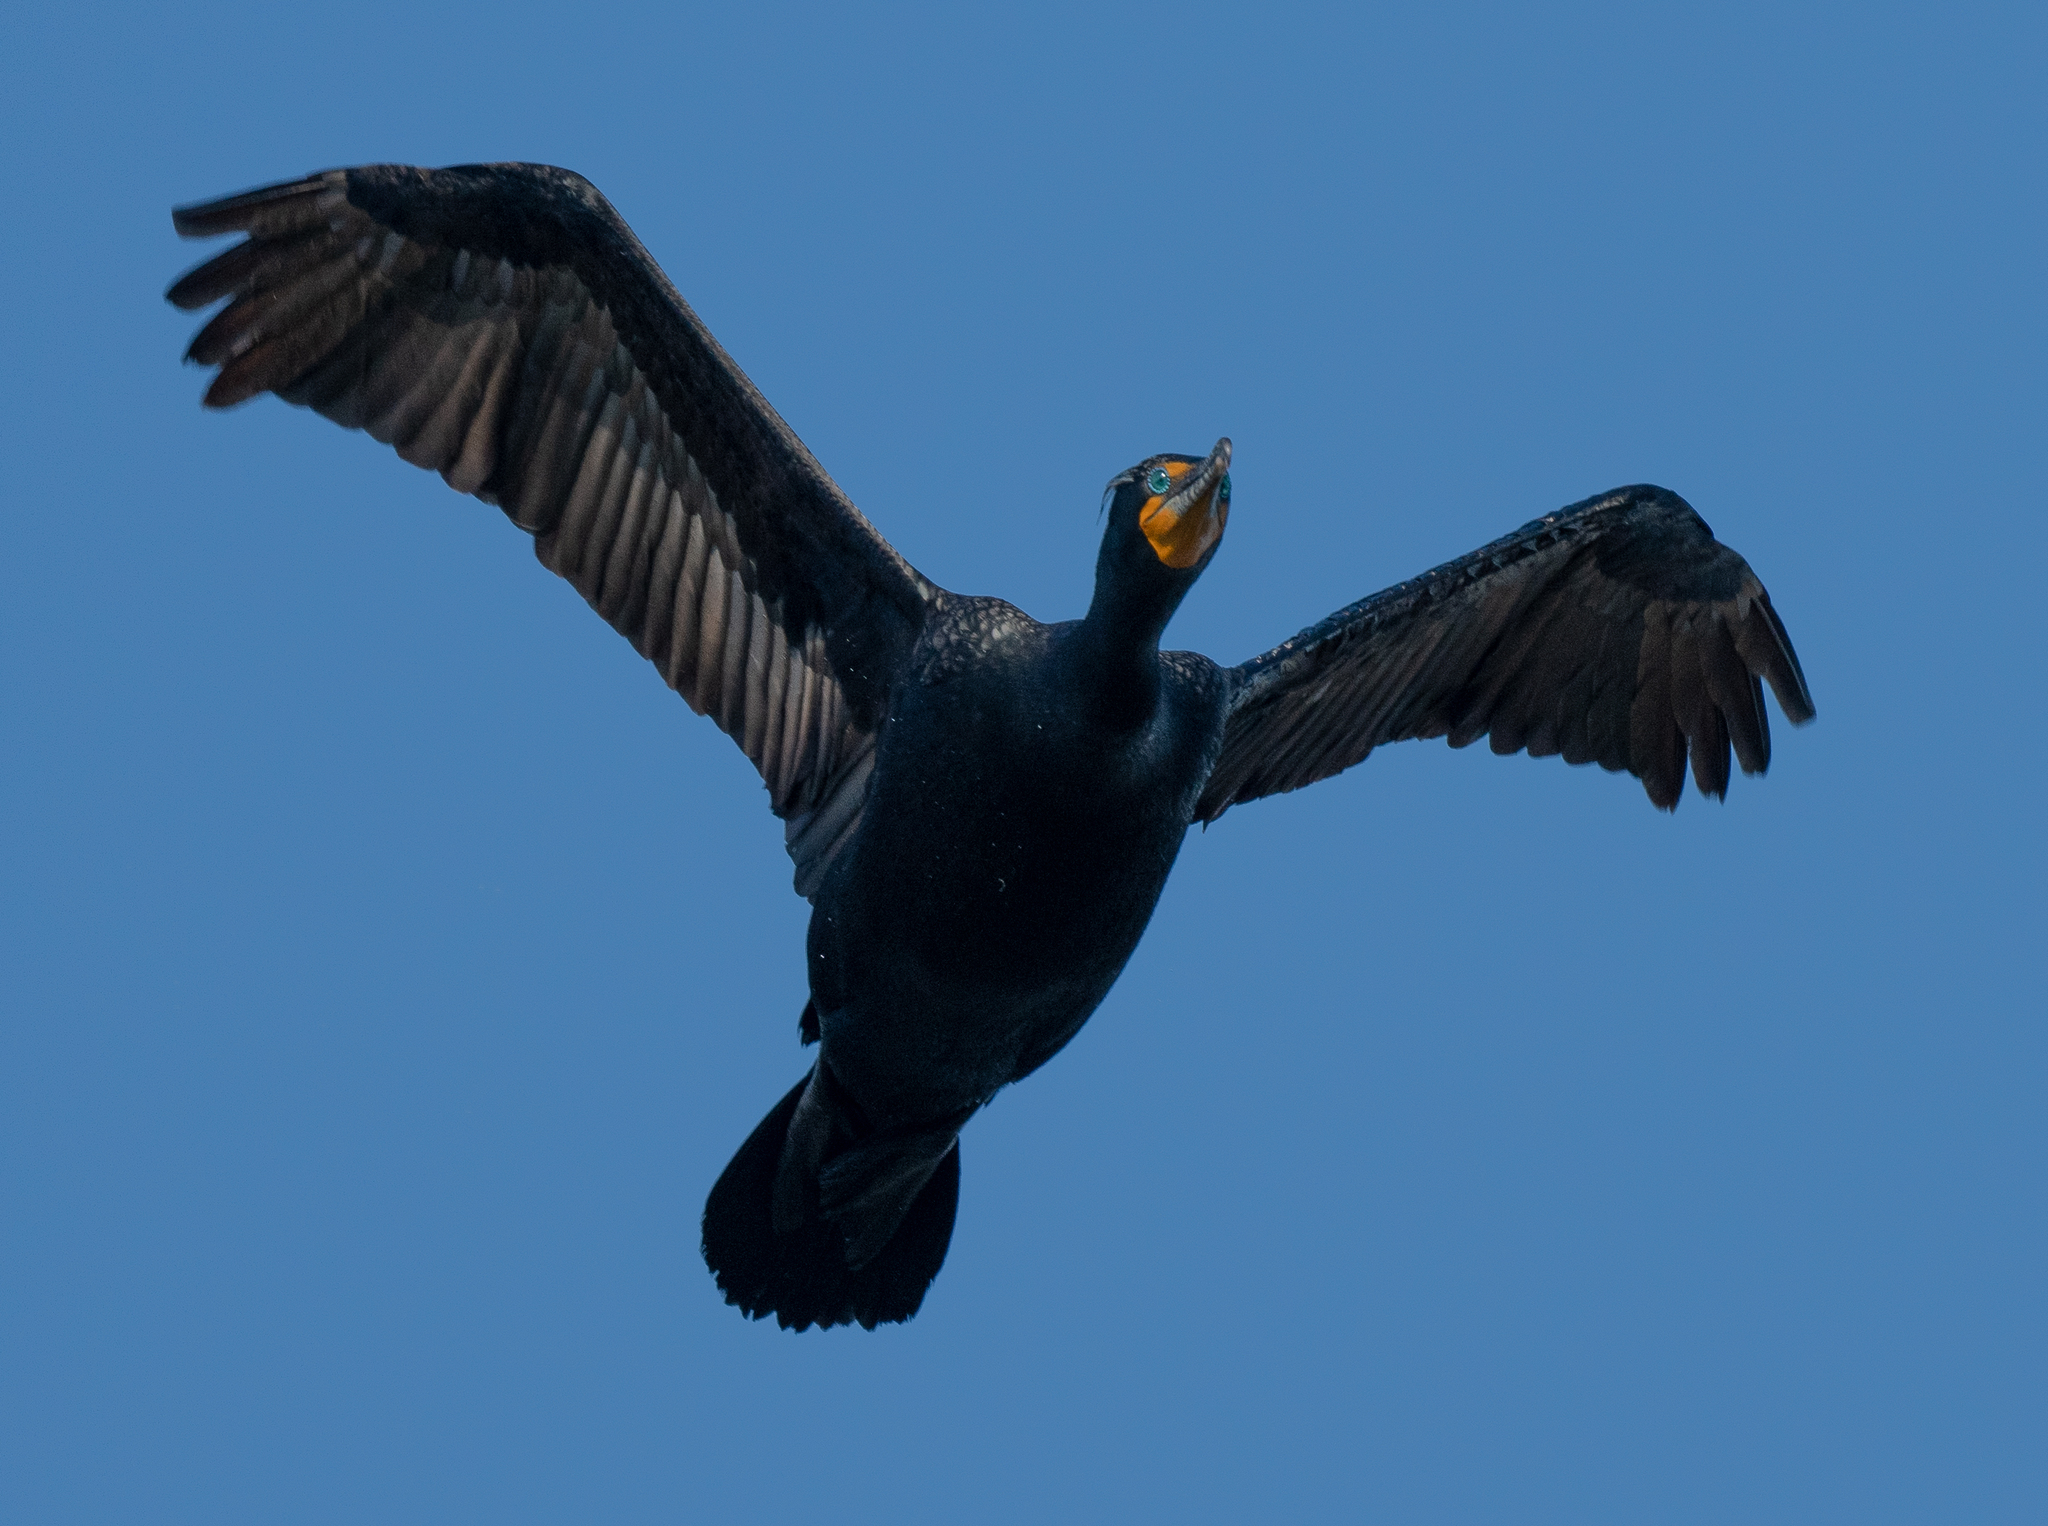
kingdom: Animalia
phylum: Chordata
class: Aves
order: Suliformes
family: Phalacrocoracidae
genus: Phalacrocorax
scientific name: Phalacrocorax auritus
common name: Double-crested cormorant
